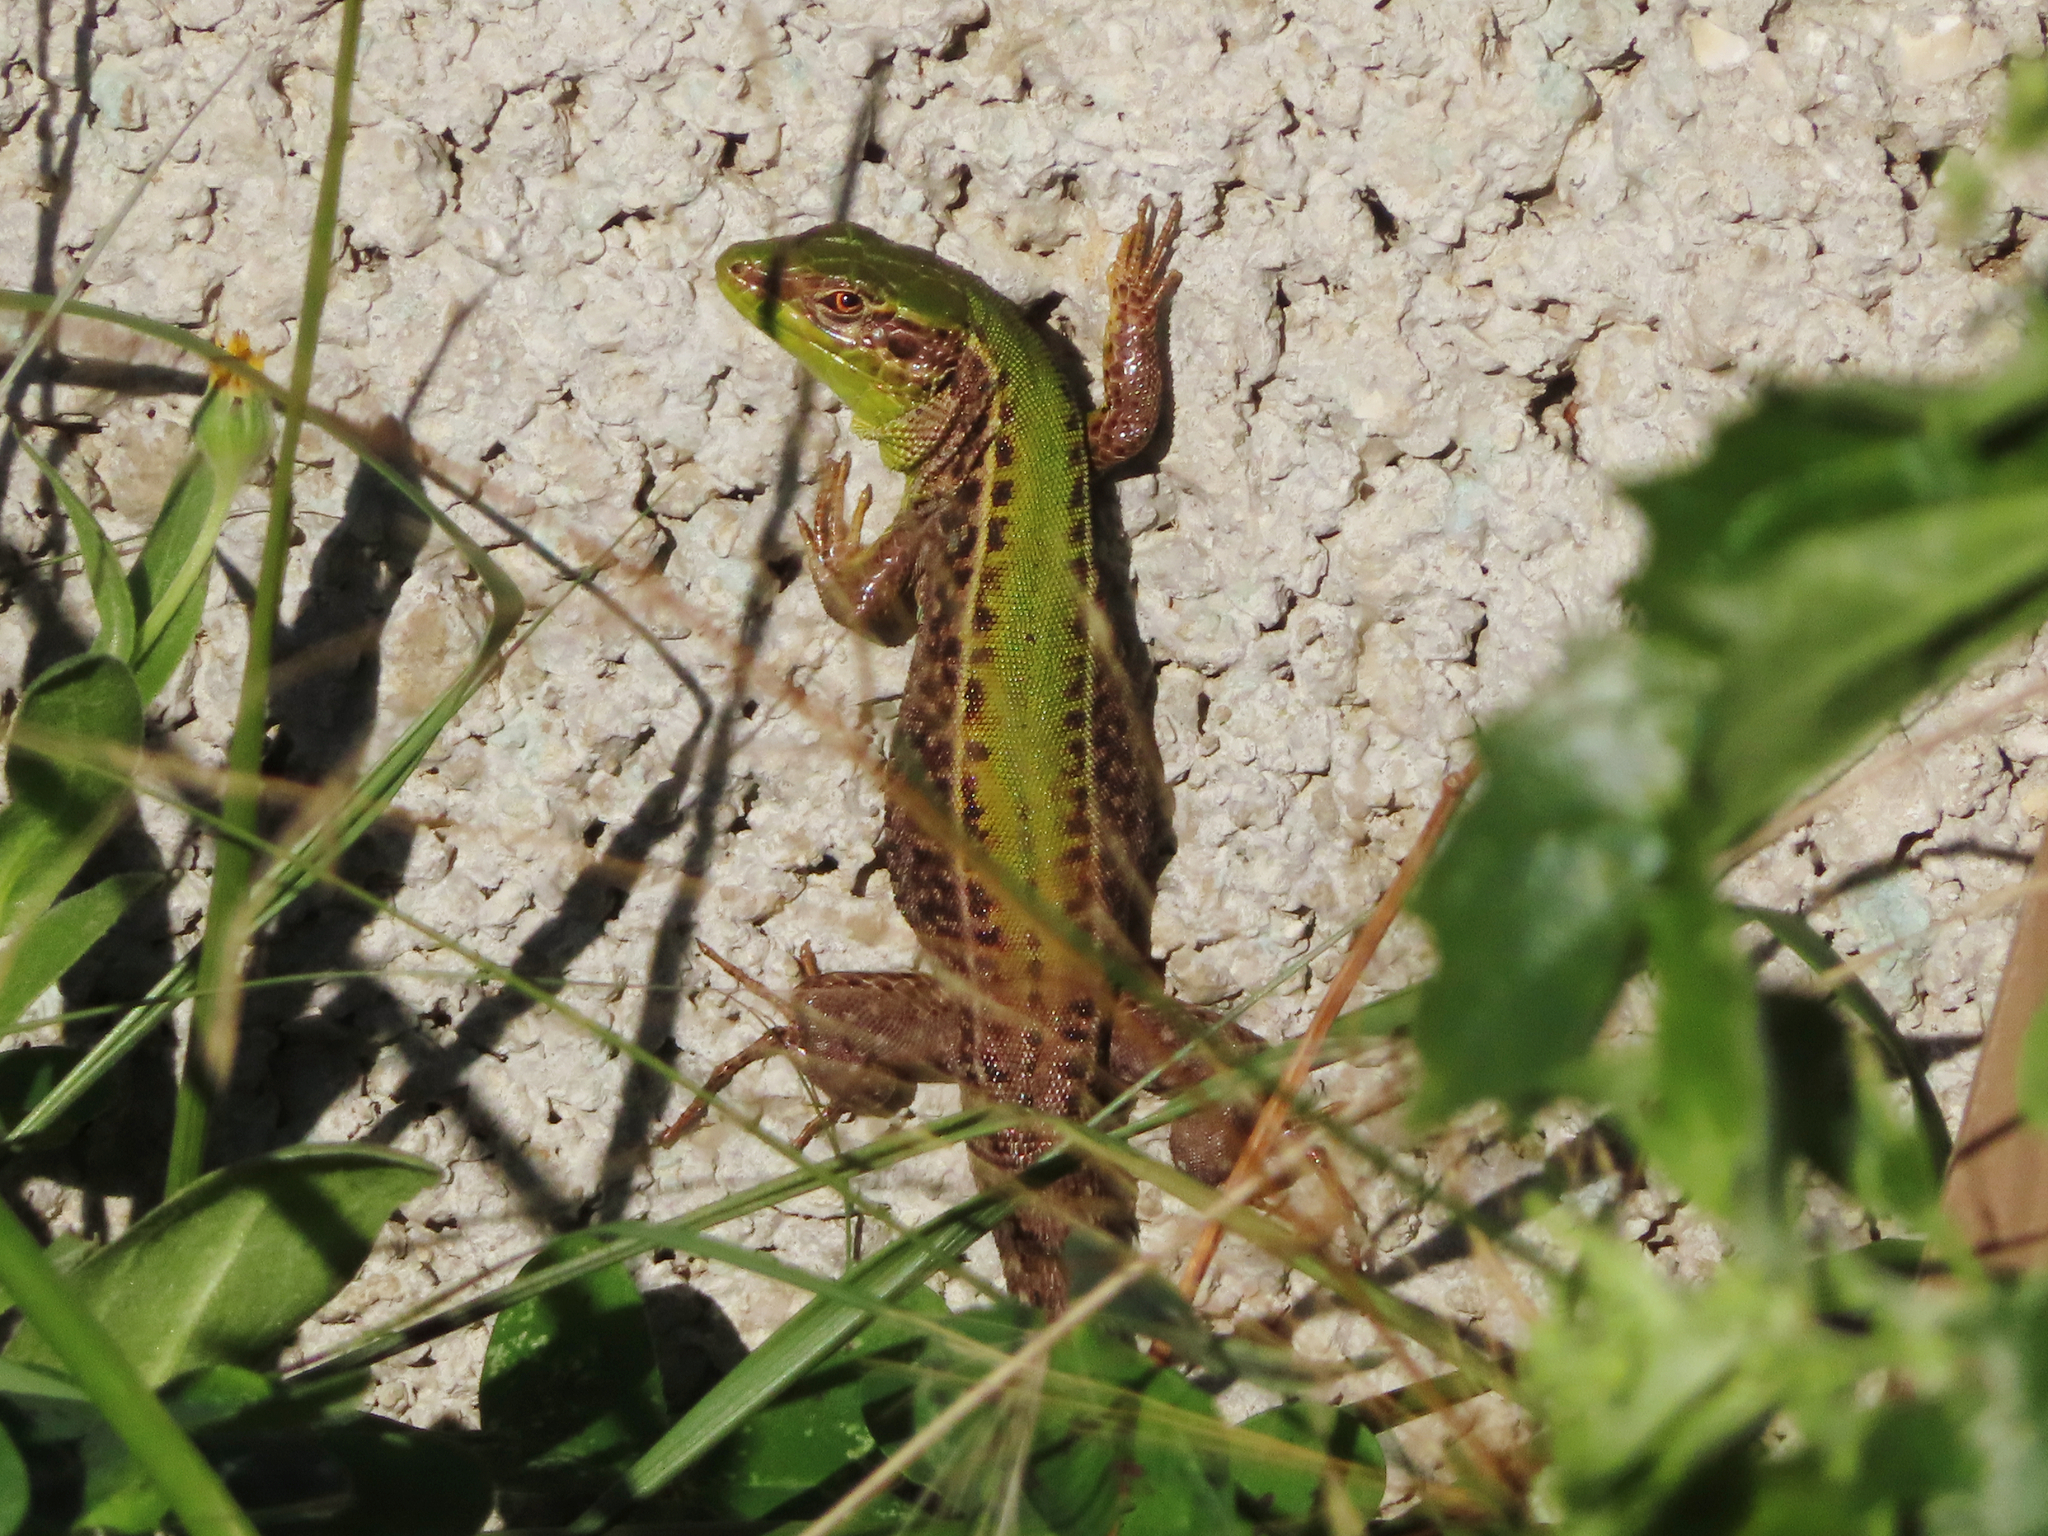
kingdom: Animalia
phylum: Chordata
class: Squamata
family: Lacertidae
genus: Podarcis
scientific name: Podarcis ionicus
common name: Ionian wall lizard
